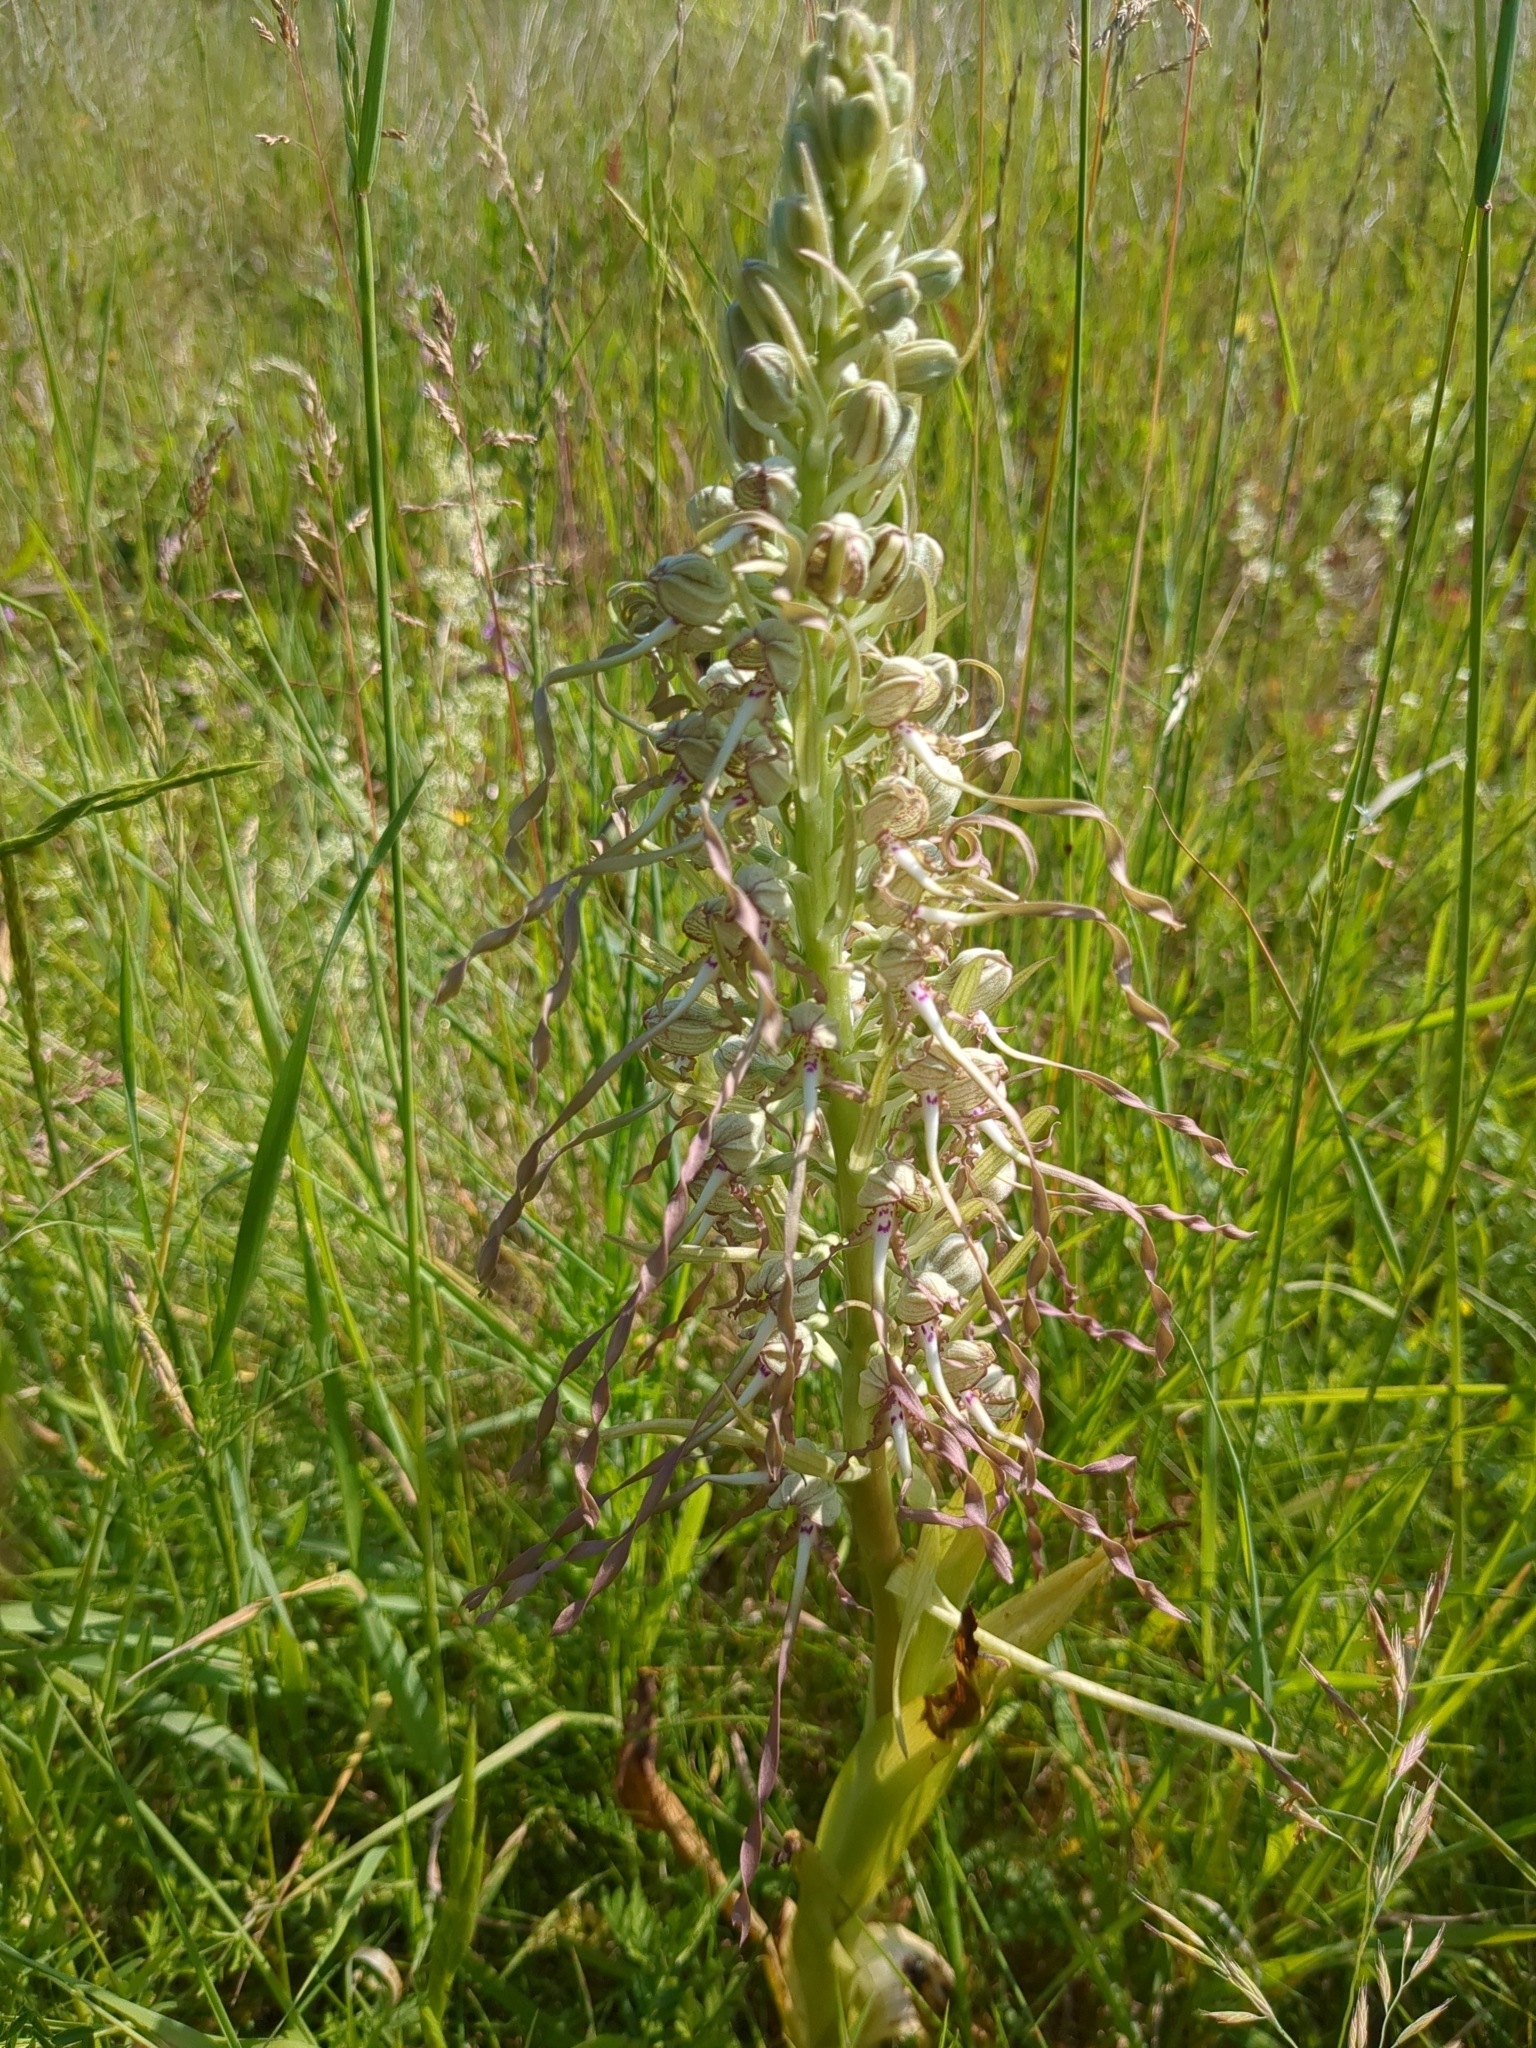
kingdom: Plantae
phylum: Tracheophyta
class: Liliopsida
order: Asparagales
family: Orchidaceae
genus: Himantoglossum
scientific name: Himantoglossum hircinum
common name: Lizard orchid
